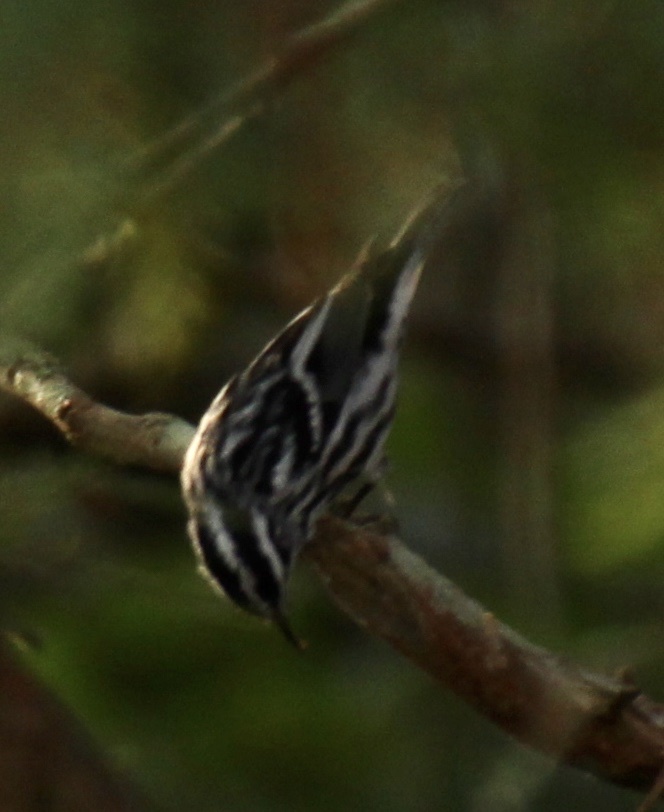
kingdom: Animalia
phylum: Chordata
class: Aves
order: Passeriformes
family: Parulidae
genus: Mniotilta
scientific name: Mniotilta varia
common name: Black-and-white warbler
